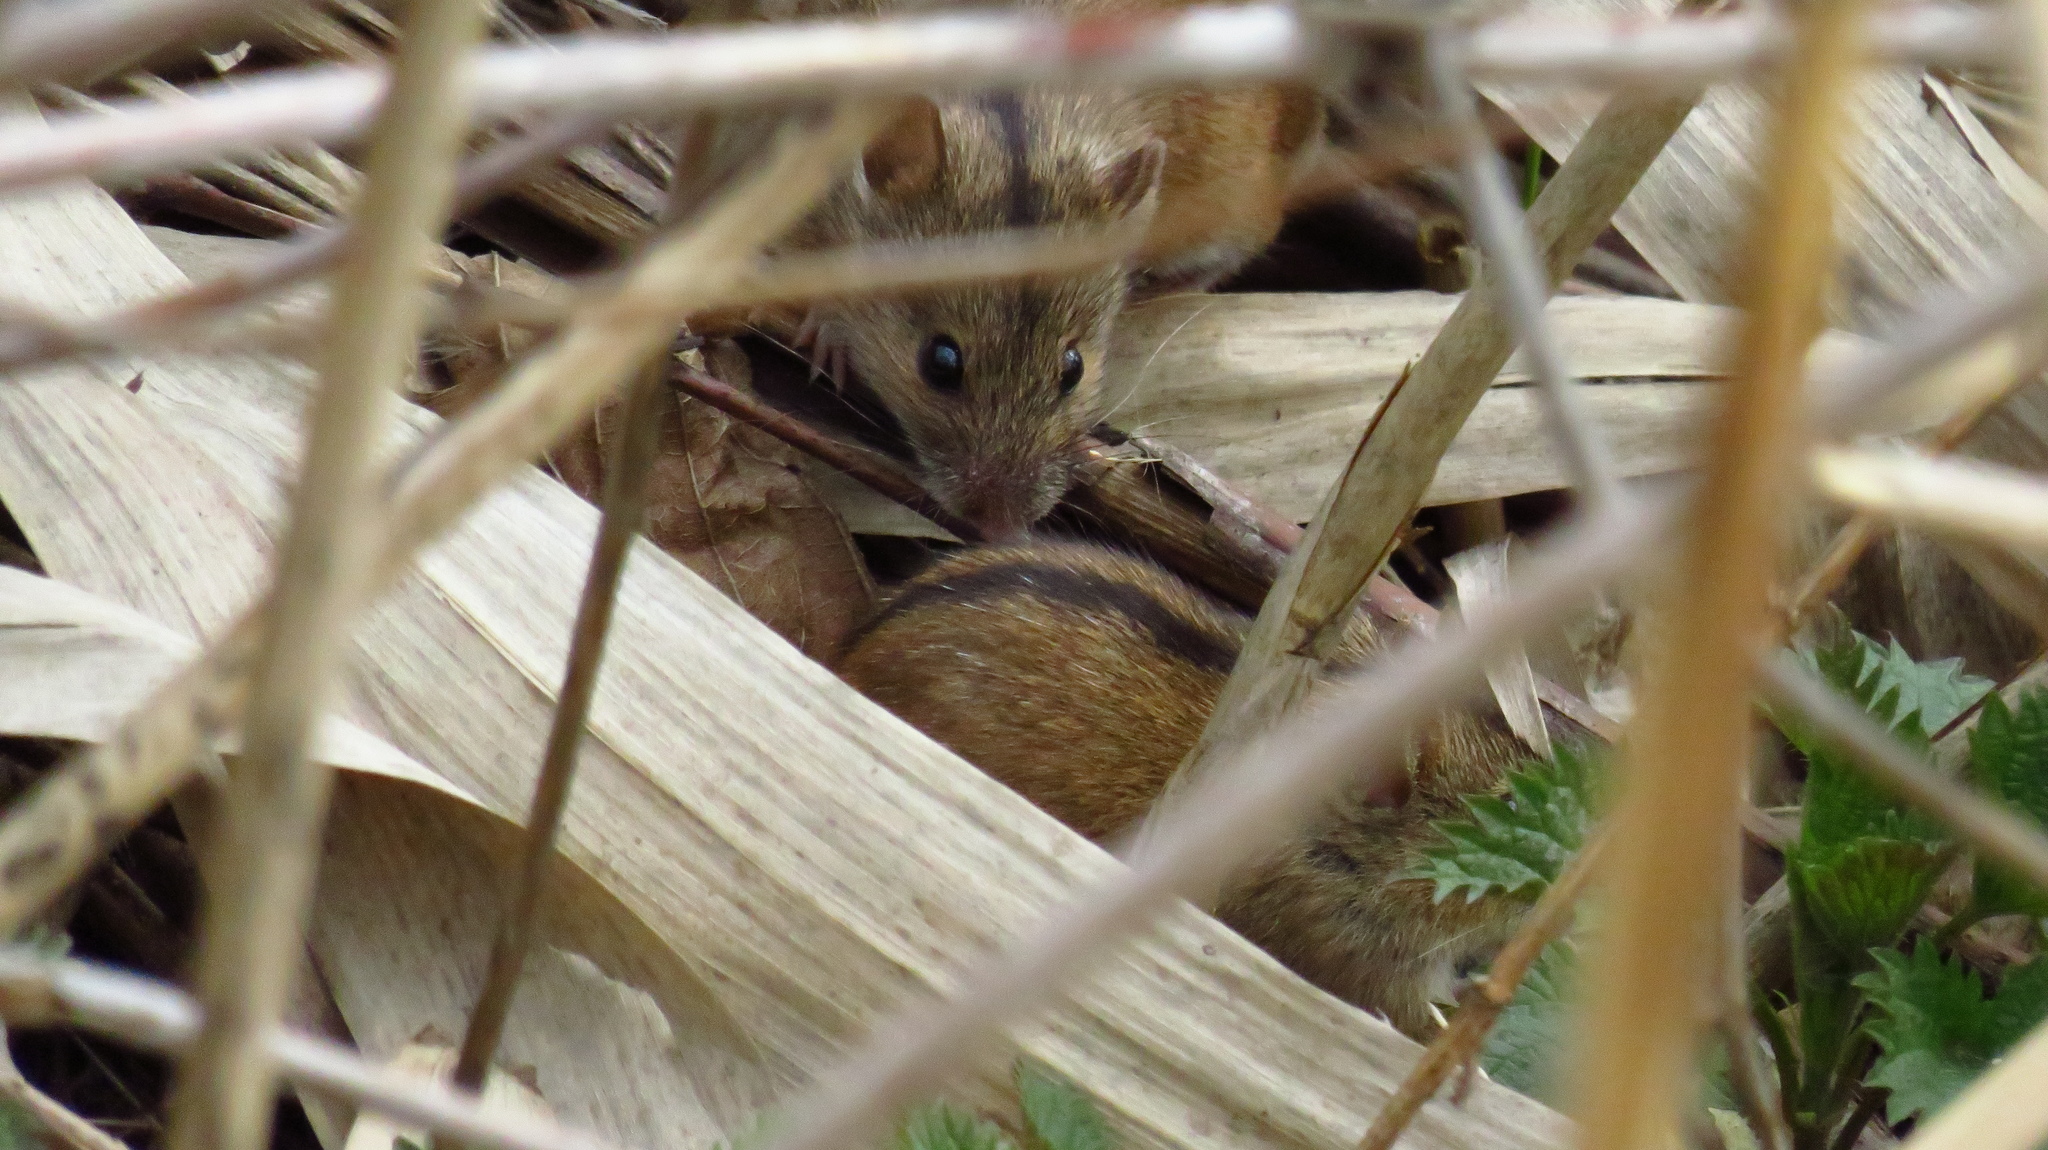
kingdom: Animalia
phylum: Chordata
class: Mammalia
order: Rodentia
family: Muridae
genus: Apodemus
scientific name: Apodemus agrarius
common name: Striped field mouse
